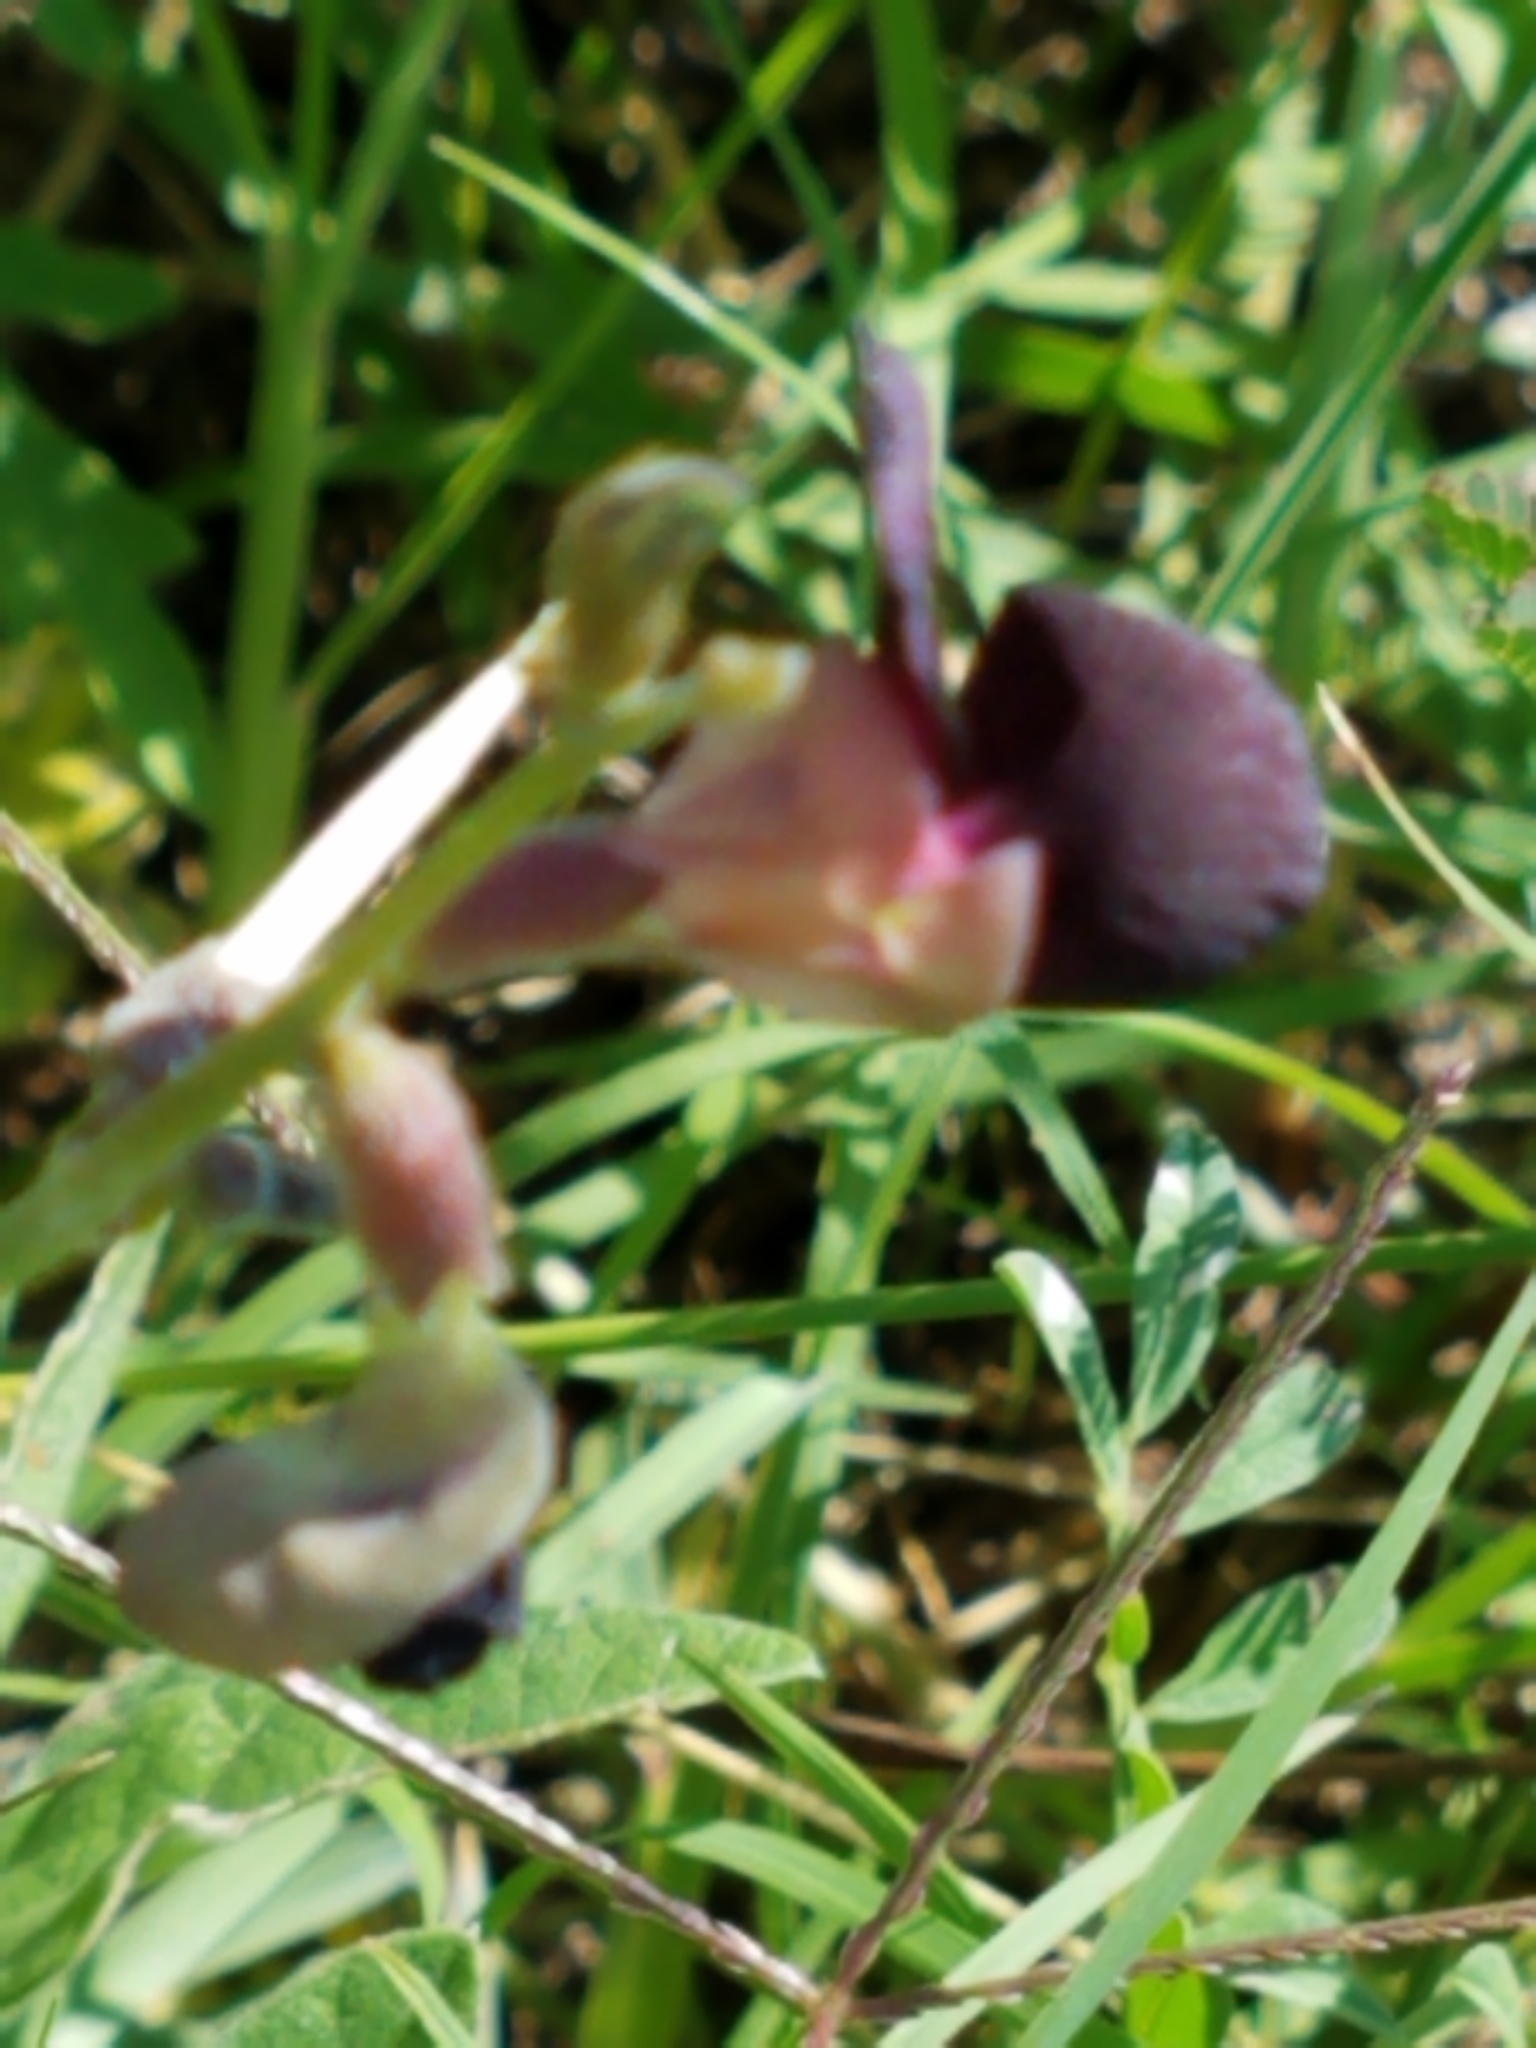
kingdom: Plantae
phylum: Tracheophyta
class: Magnoliopsida
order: Fabales
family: Fabaceae
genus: Macroptilium
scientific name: Macroptilium atropurpureum
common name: Purple bushbean
